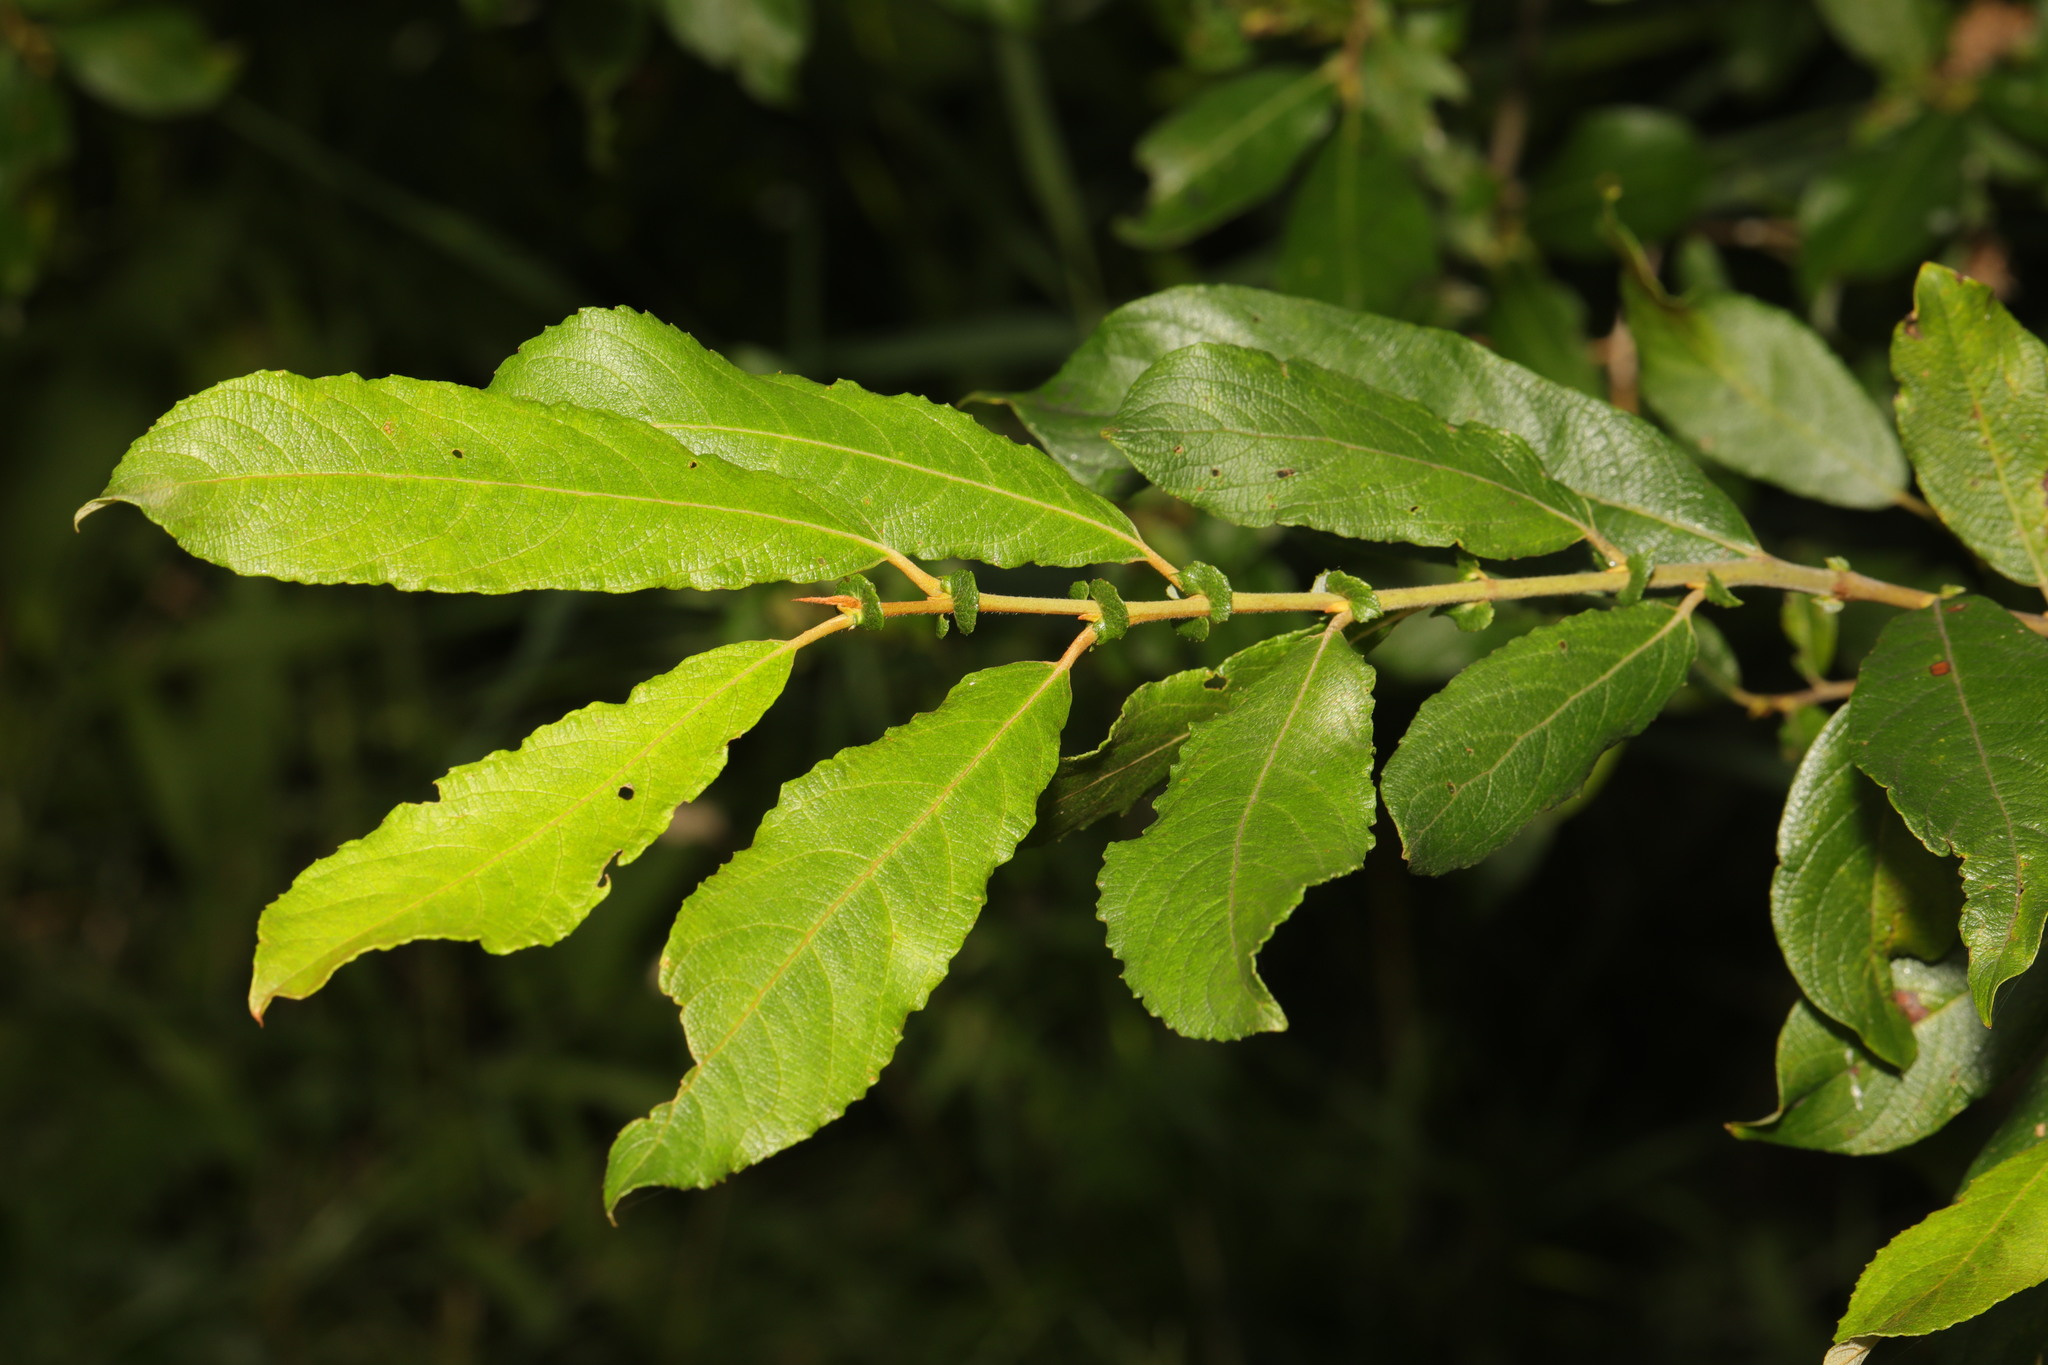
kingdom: Plantae
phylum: Tracheophyta
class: Magnoliopsida
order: Malpighiales
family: Salicaceae
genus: Salix
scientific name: Salix cinerea
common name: Common sallow
